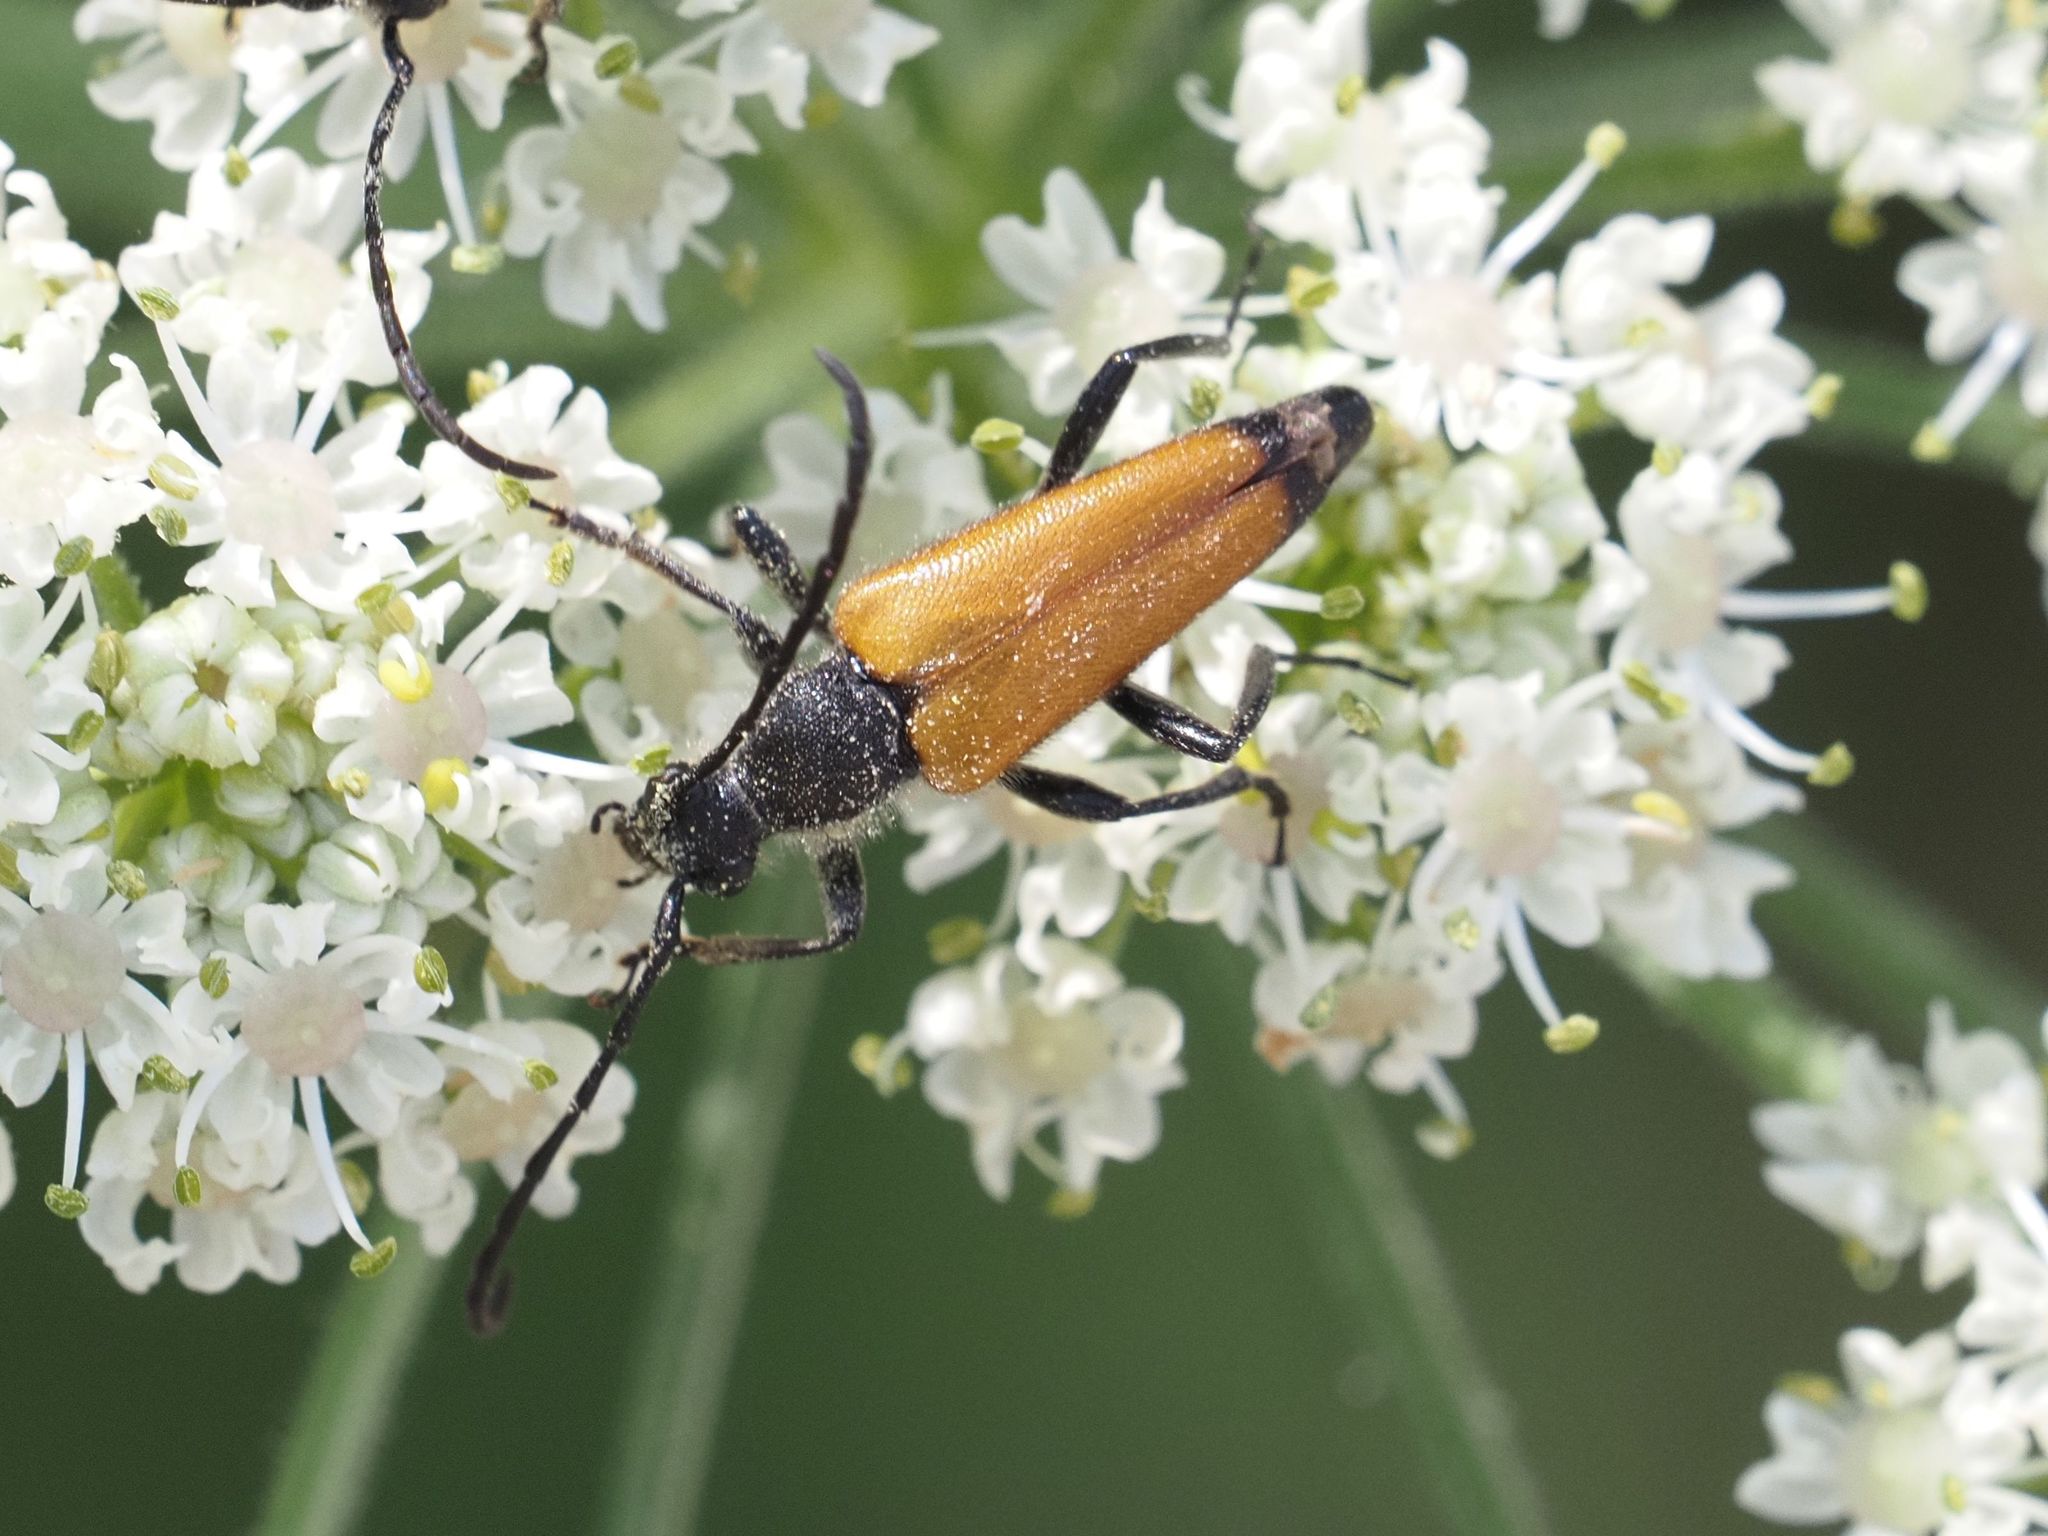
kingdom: Animalia
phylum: Arthropoda
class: Insecta
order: Coleoptera
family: Cerambycidae
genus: Paracorymbia
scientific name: Paracorymbia fulva
